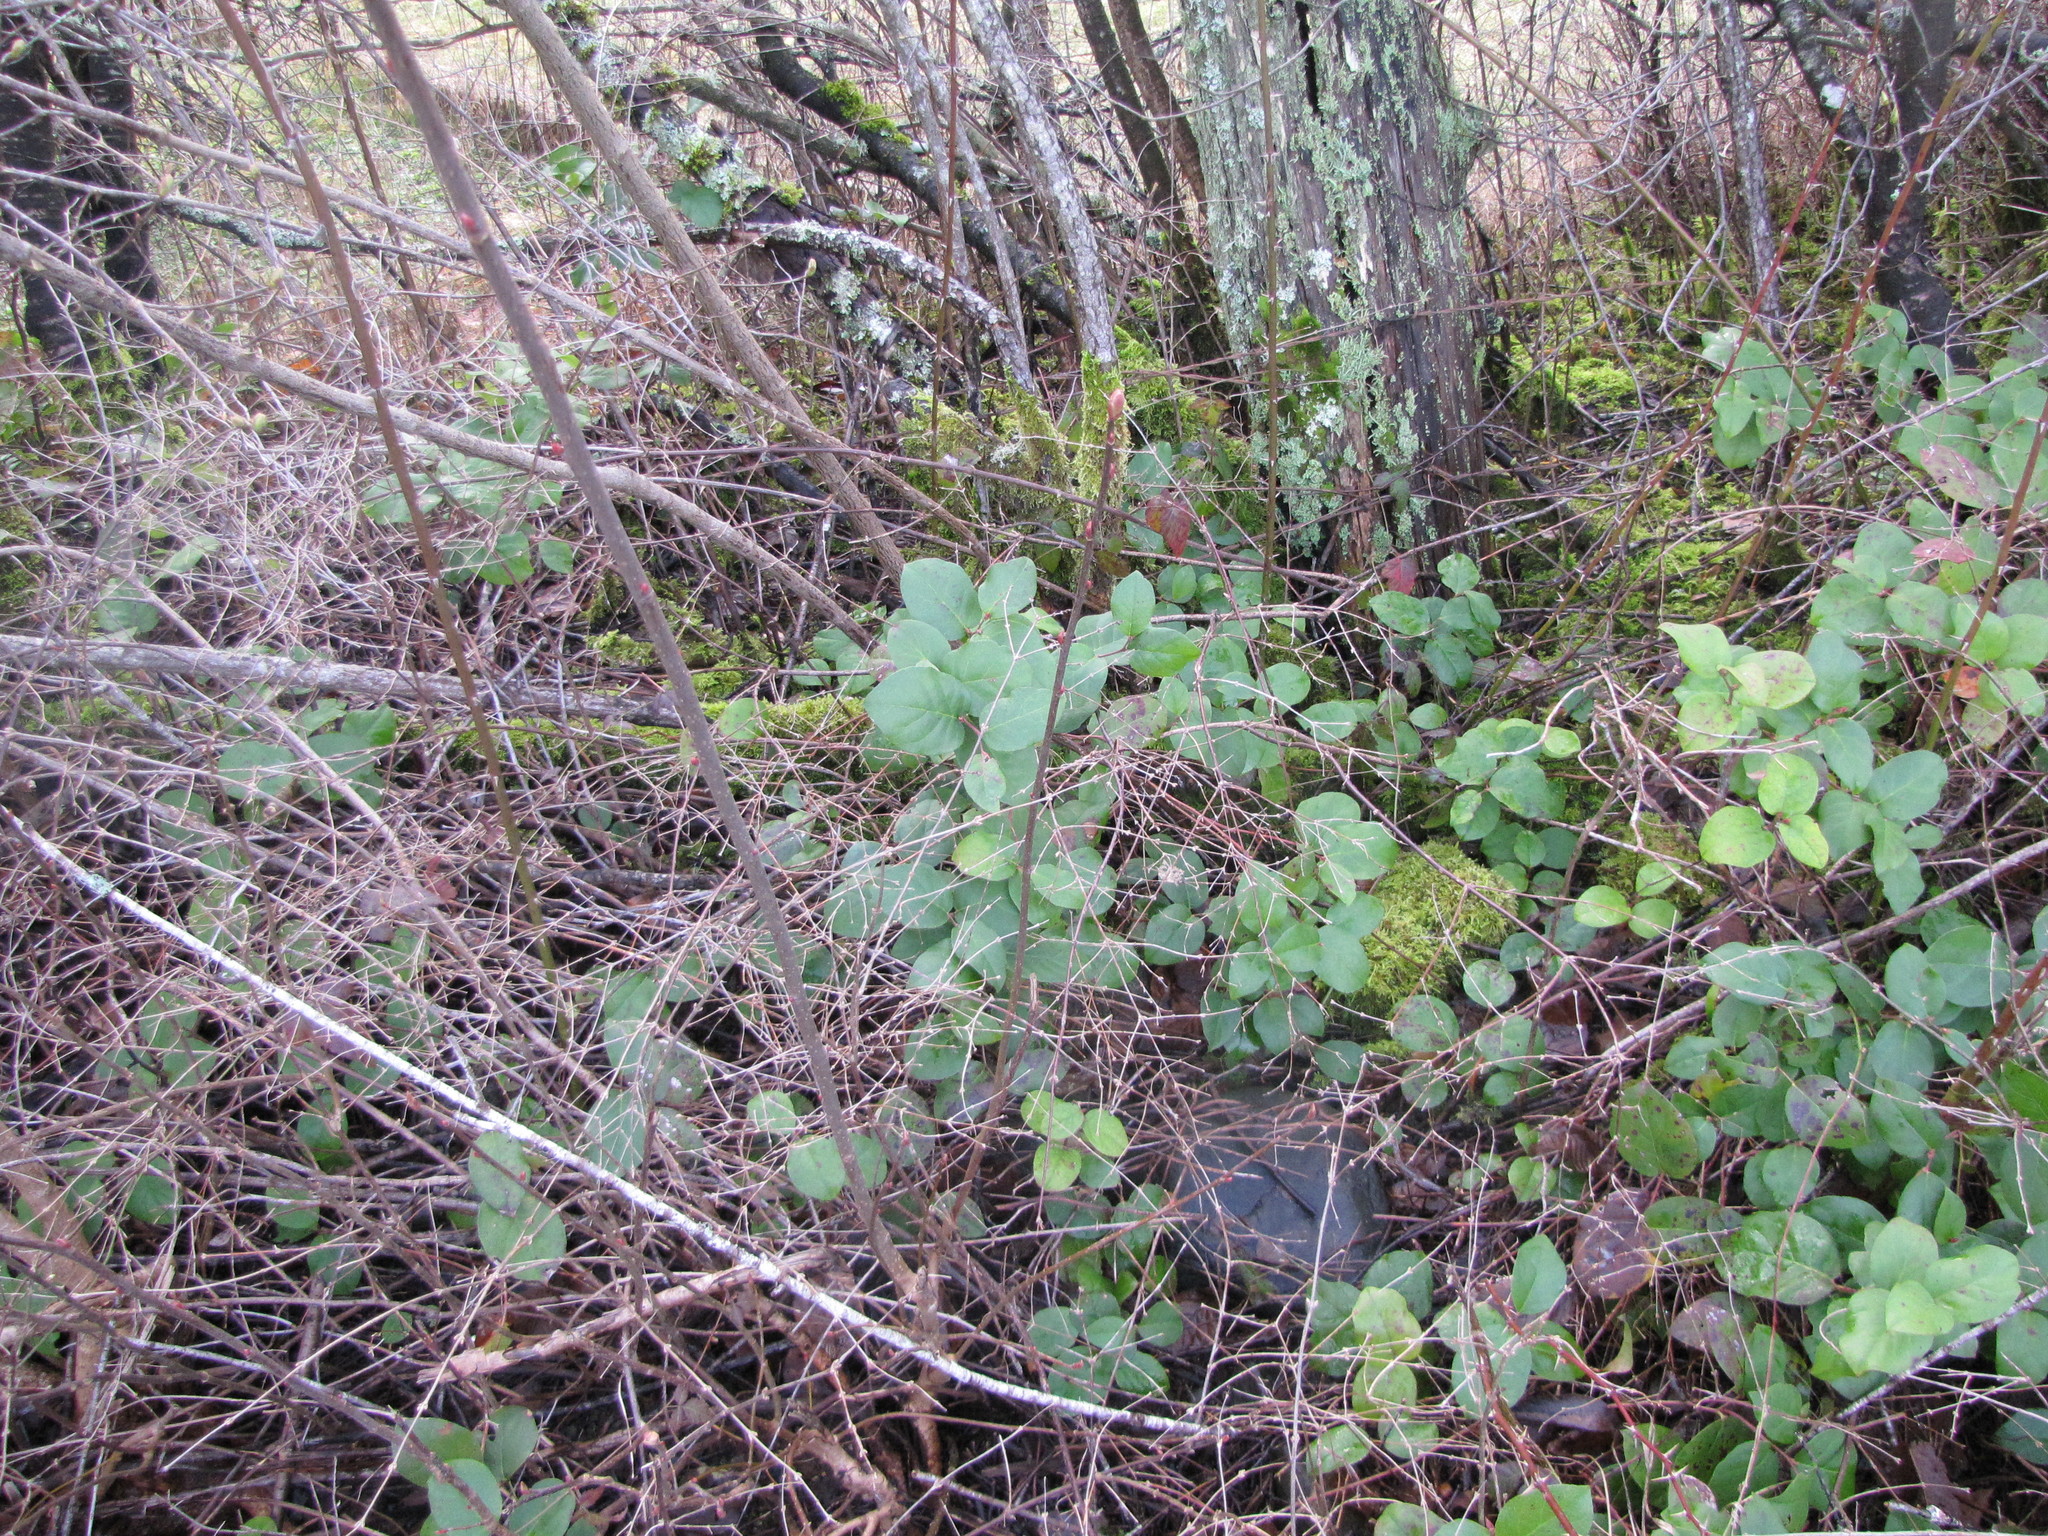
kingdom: Plantae
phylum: Tracheophyta
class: Magnoliopsida
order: Ericales
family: Ericaceae
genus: Gaultheria
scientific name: Gaultheria shallon
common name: Shallon
